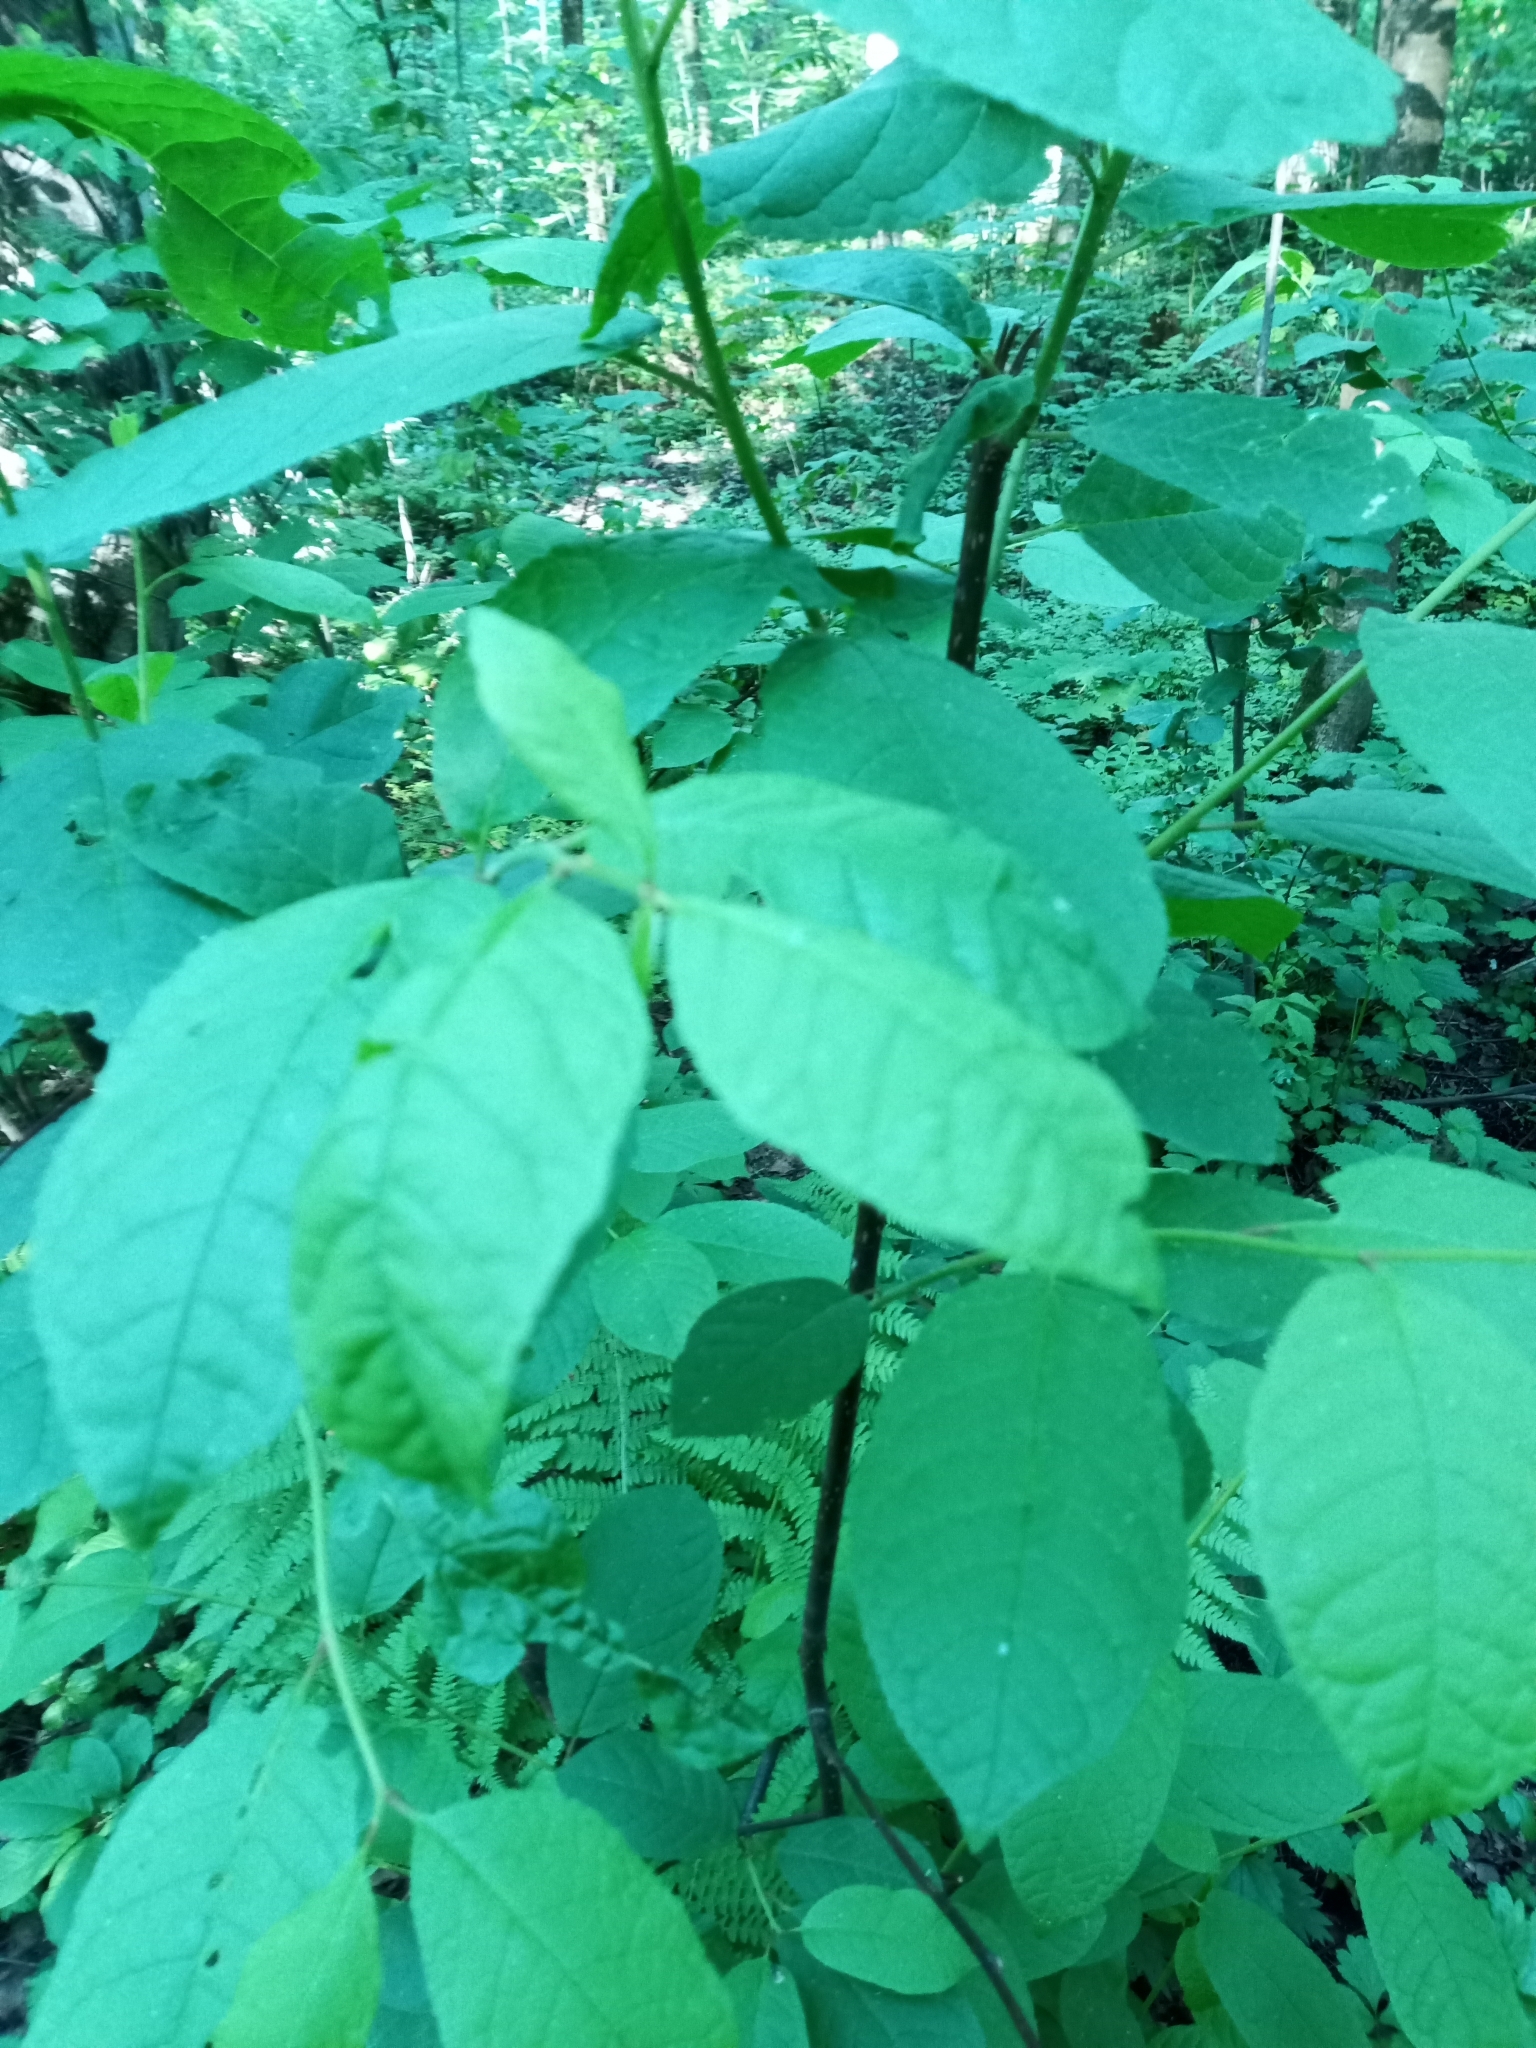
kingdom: Plantae
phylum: Tracheophyta
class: Magnoliopsida
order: Rosales
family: Rosaceae
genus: Prunus
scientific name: Prunus padus
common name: Bird cherry
